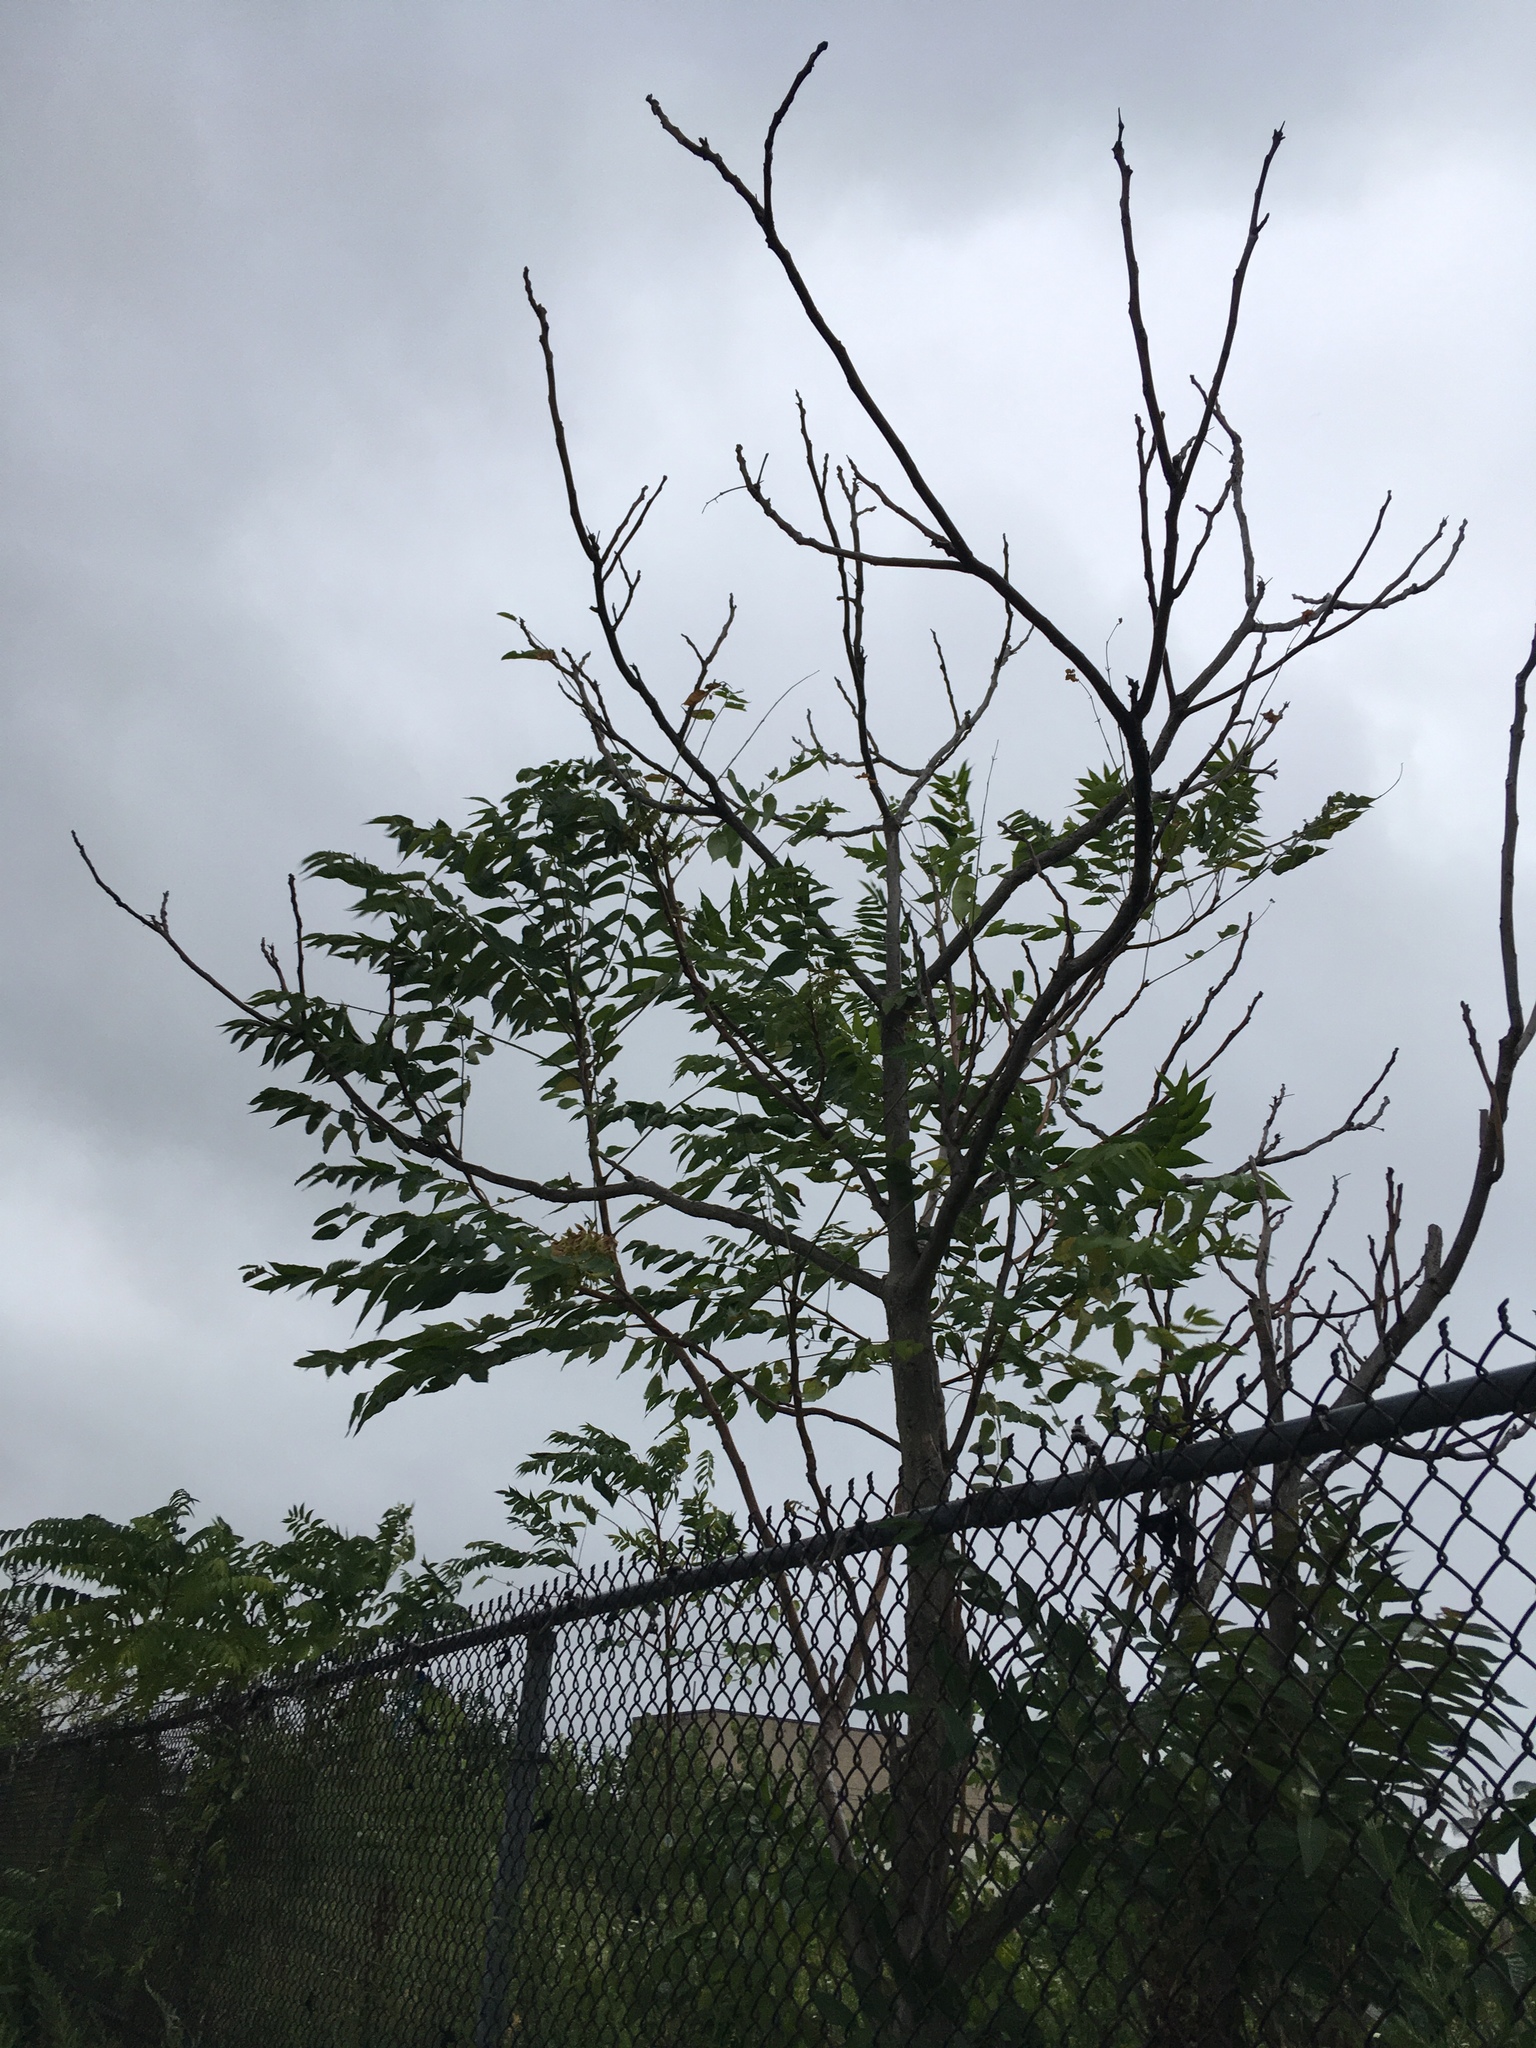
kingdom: Plantae
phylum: Tracheophyta
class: Magnoliopsida
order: Sapindales
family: Simaroubaceae
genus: Ailanthus
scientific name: Ailanthus altissima
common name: Tree-of-heaven
